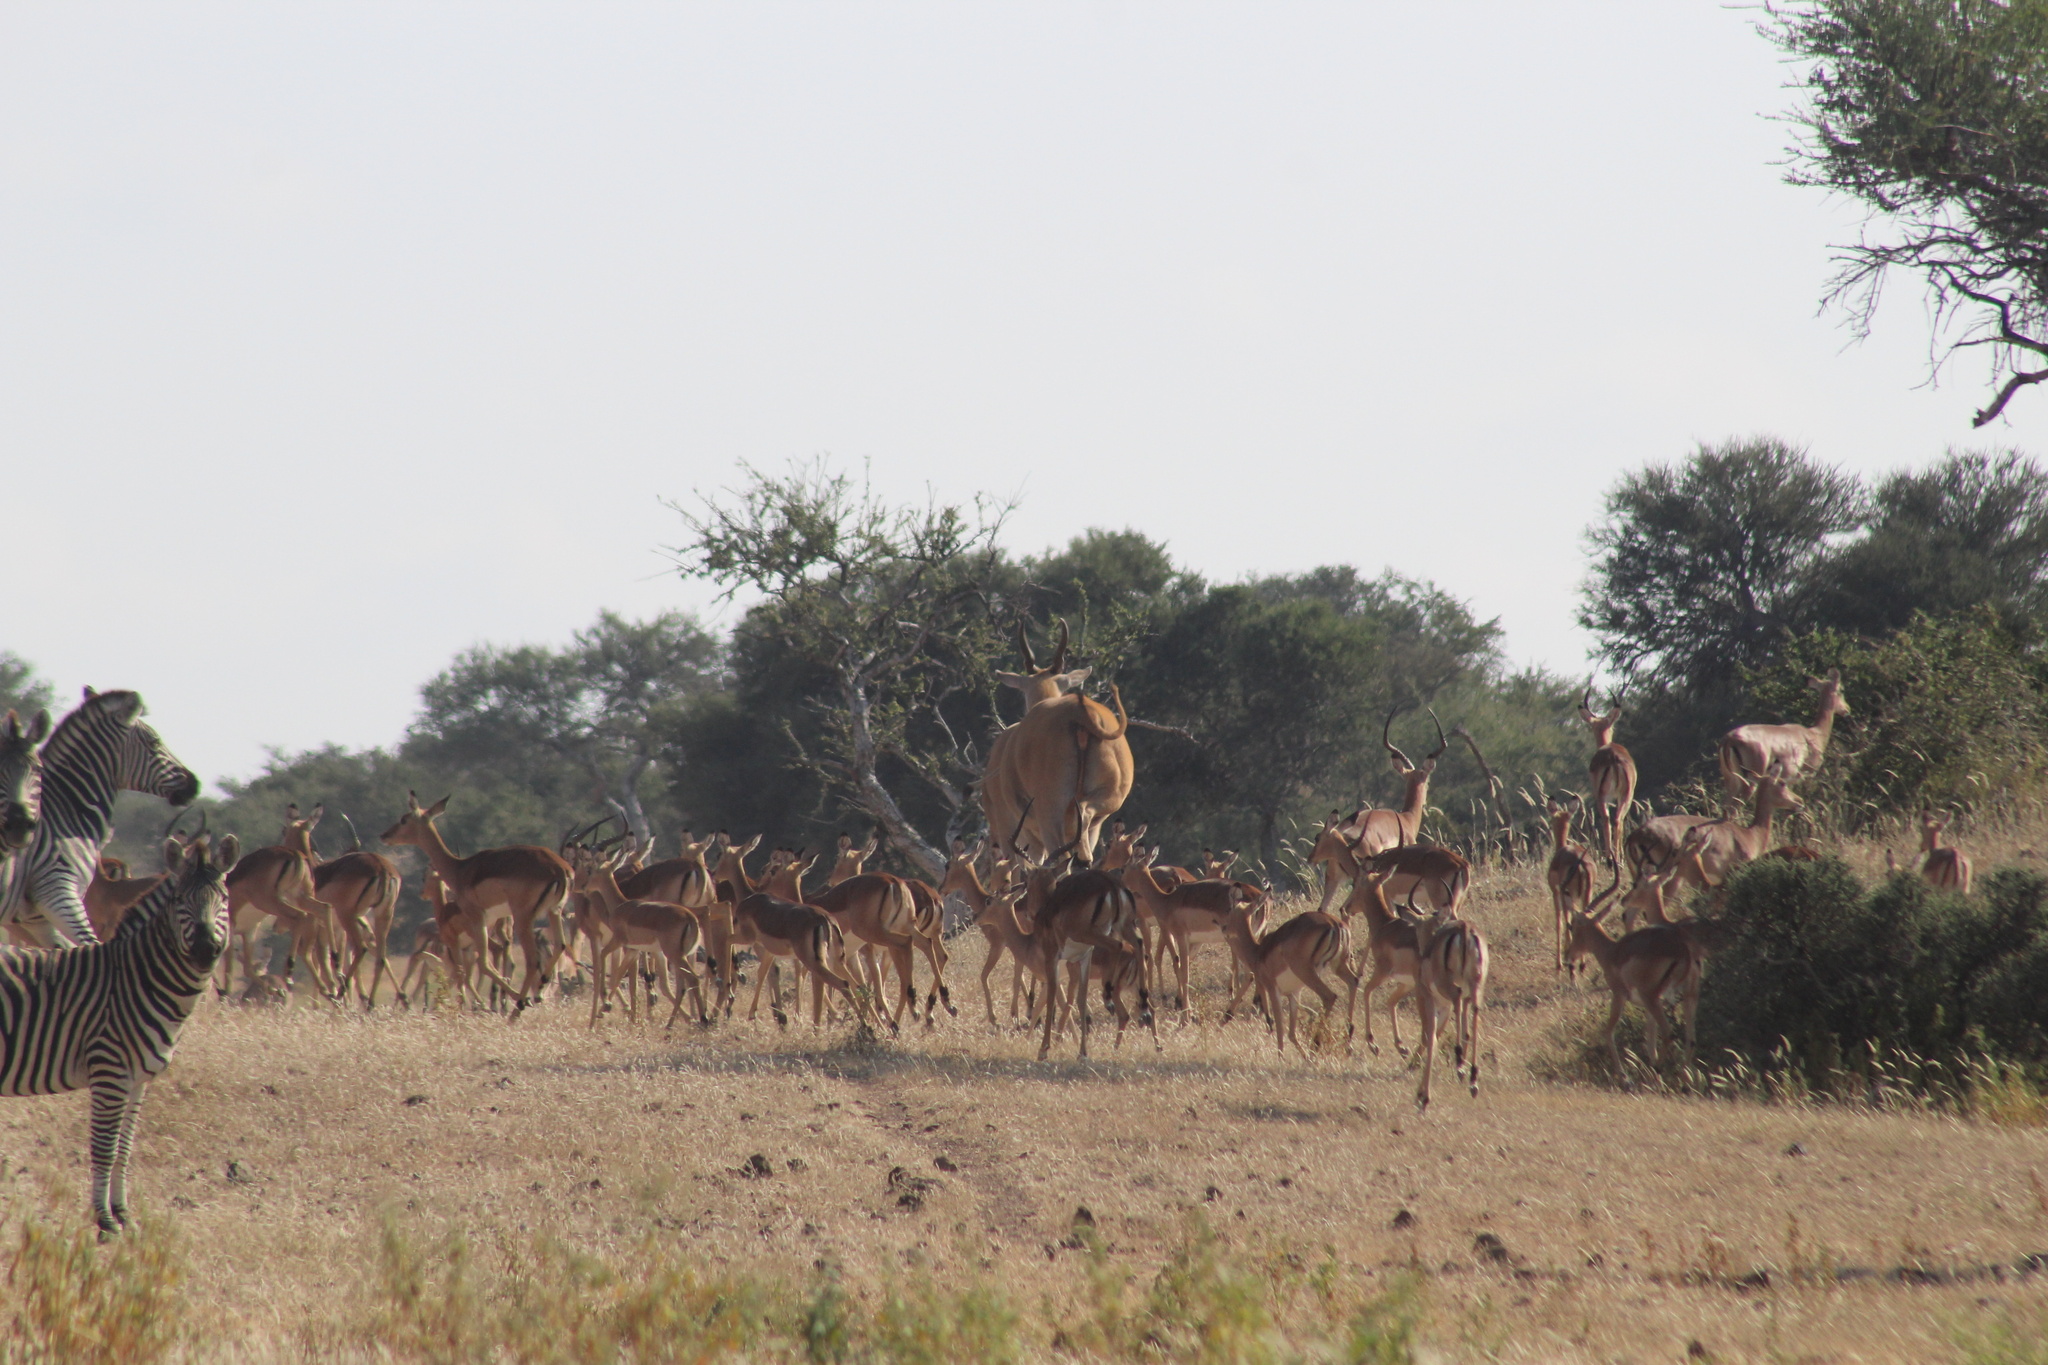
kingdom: Animalia
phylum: Chordata
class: Mammalia
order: Artiodactyla
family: Bovidae
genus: Aepyceros
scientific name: Aepyceros melampus
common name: Impala
